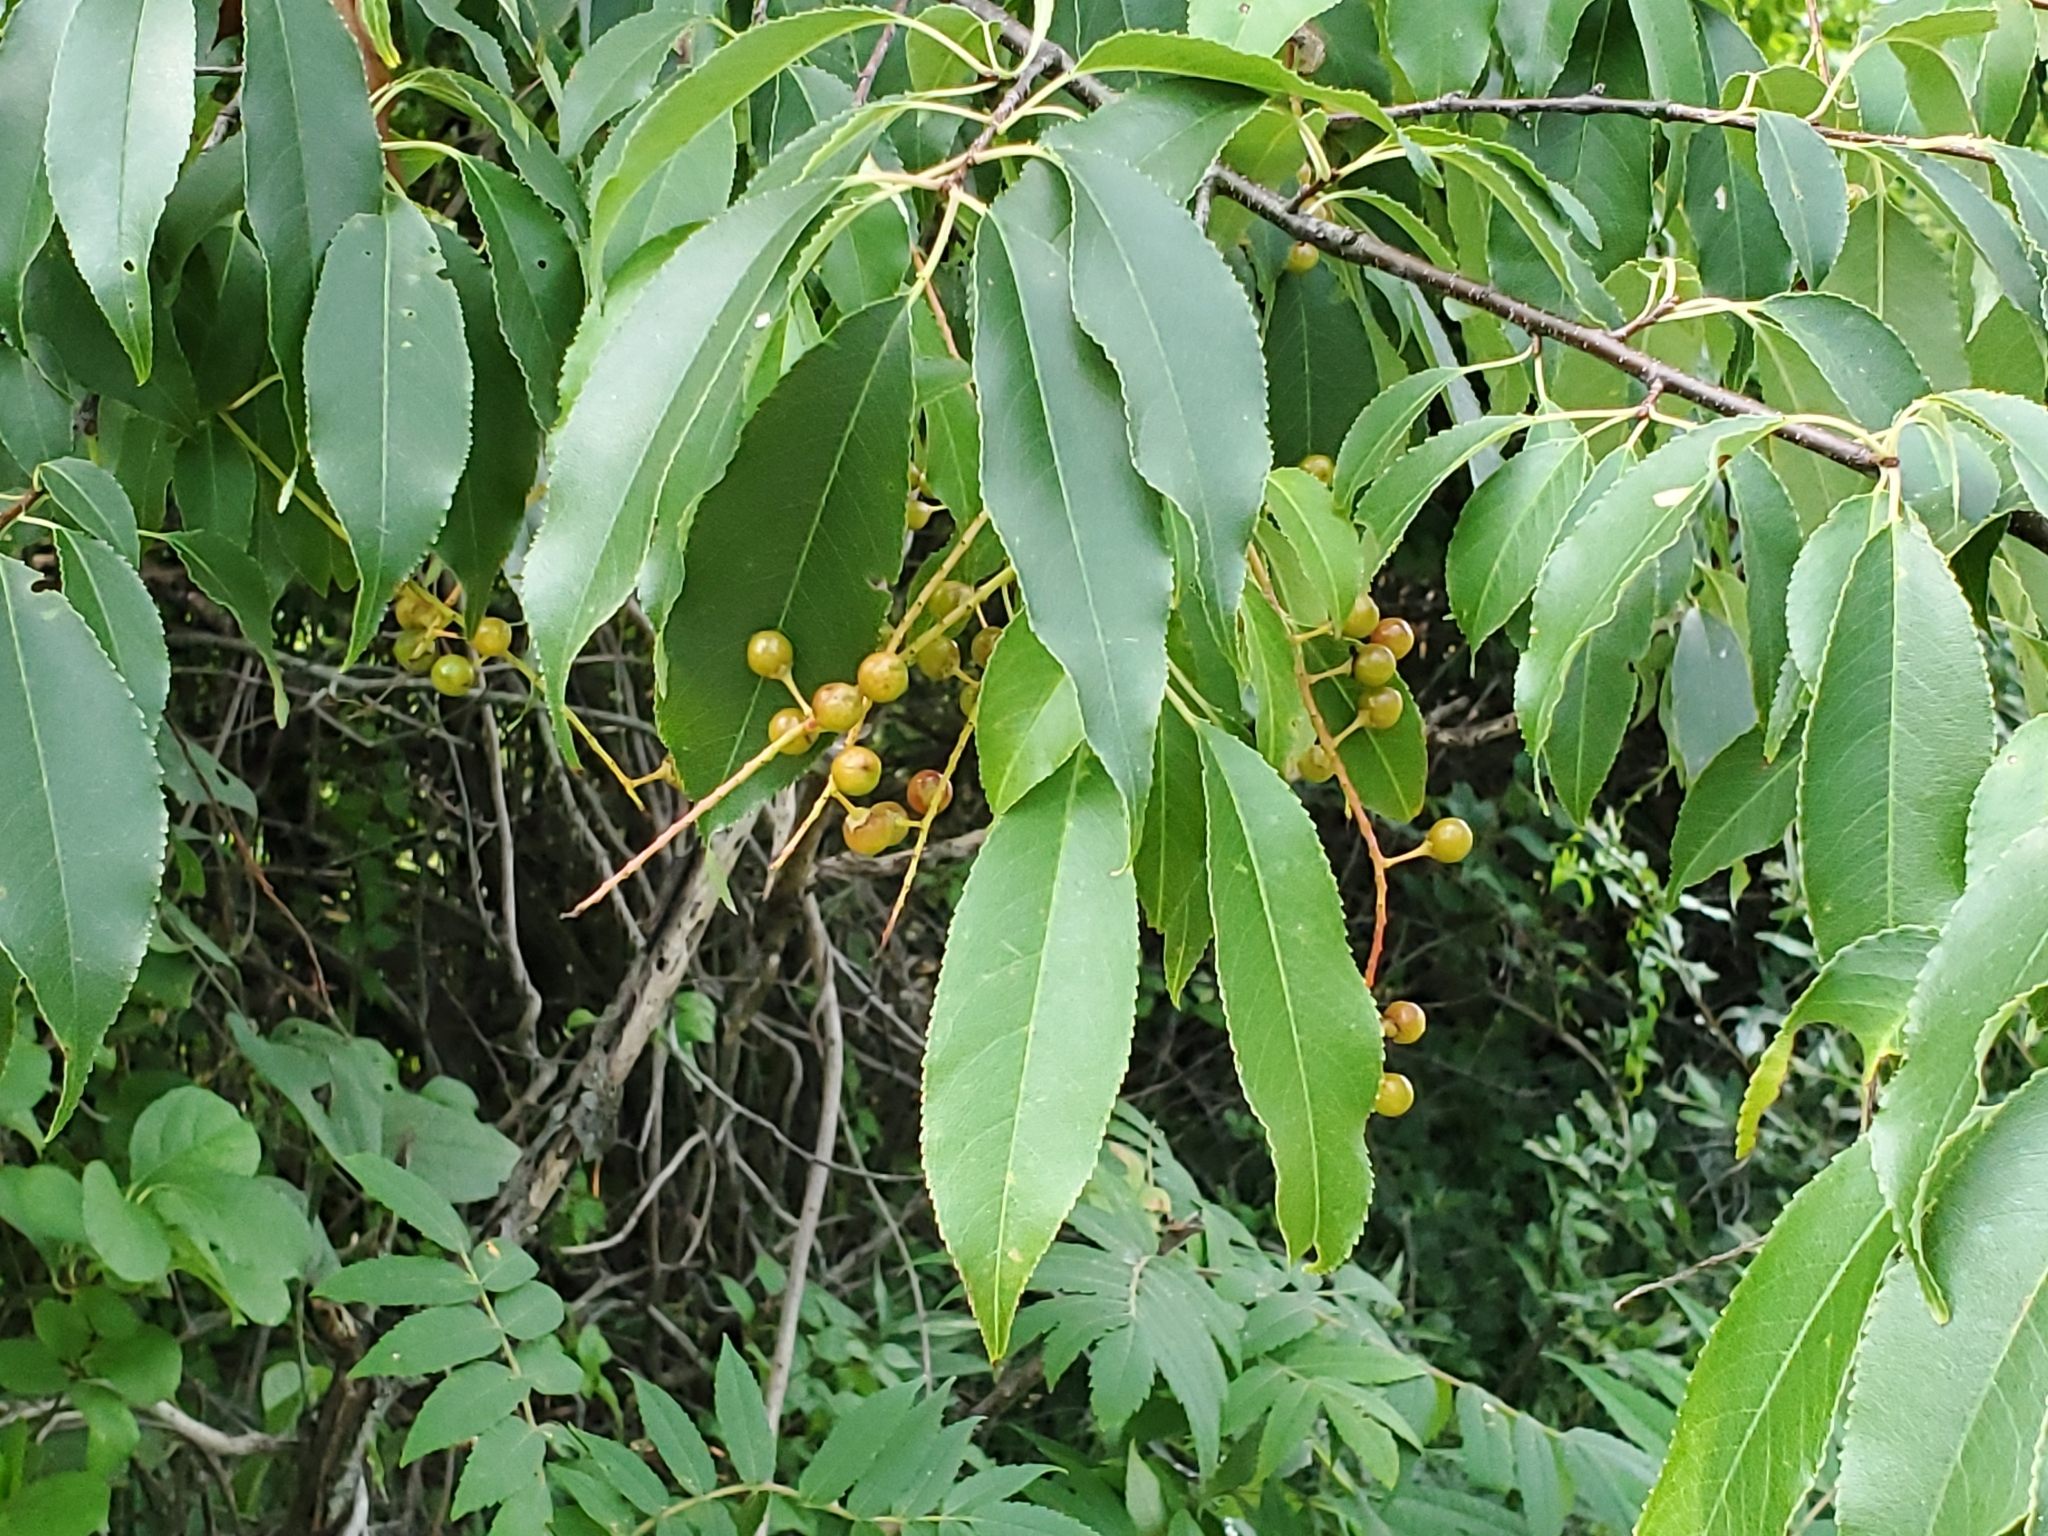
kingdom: Plantae
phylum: Tracheophyta
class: Magnoliopsida
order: Rosales
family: Rosaceae
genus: Prunus
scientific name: Prunus serotina
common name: Black cherry
